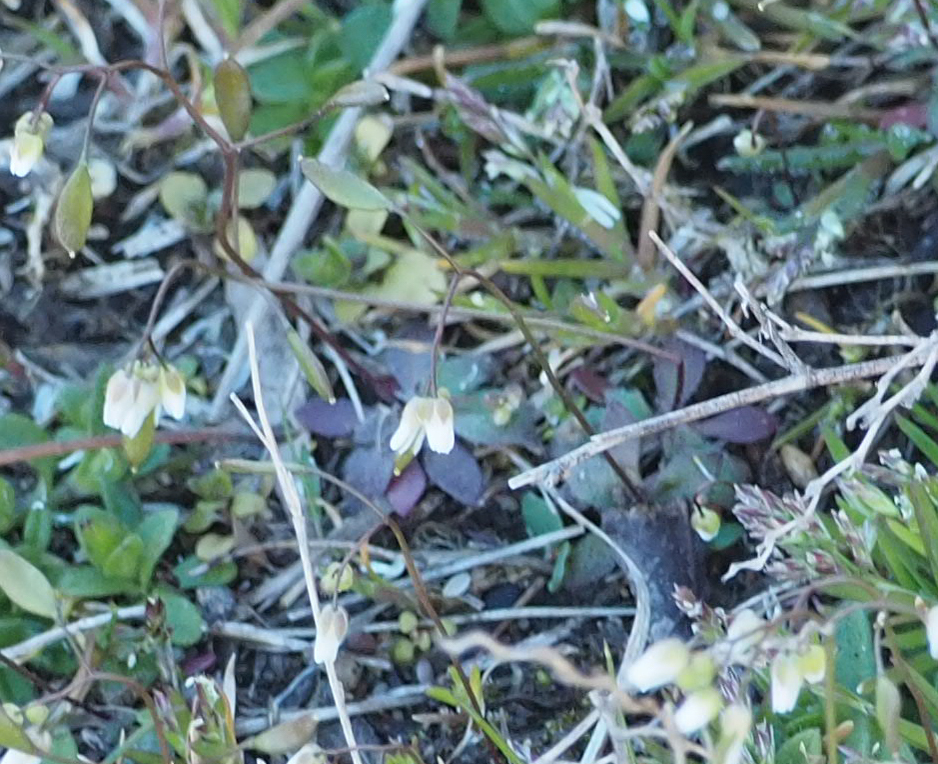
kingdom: Plantae
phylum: Tracheophyta
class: Magnoliopsida
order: Brassicales
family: Brassicaceae
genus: Draba
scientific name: Draba verna
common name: Spring draba
